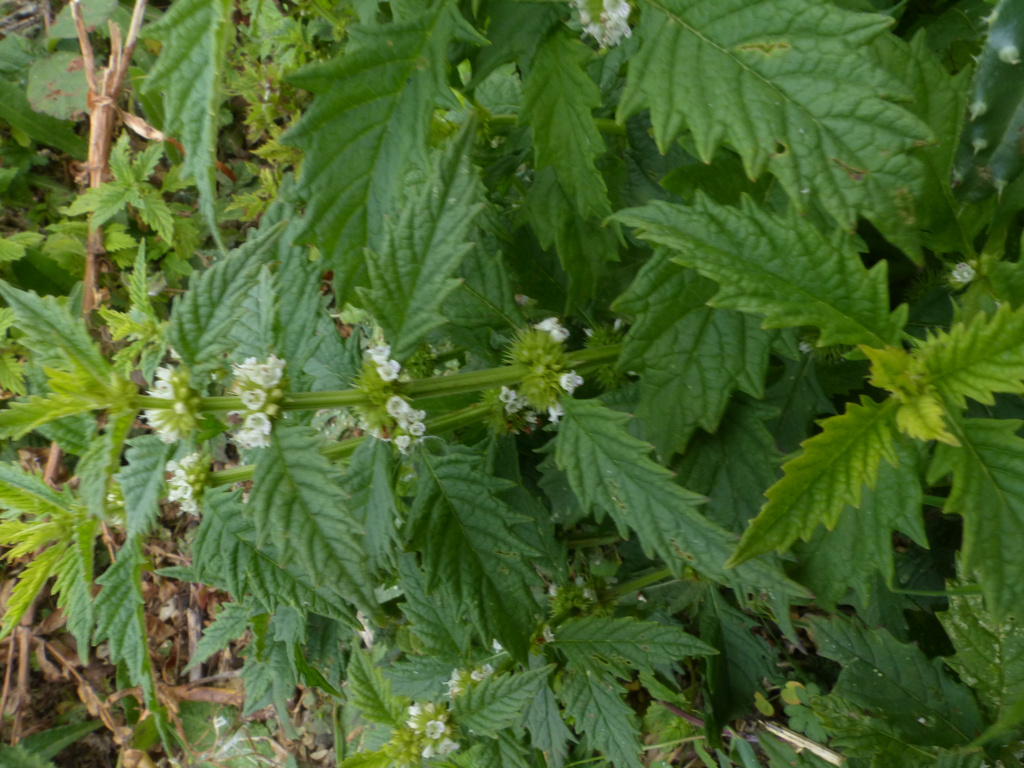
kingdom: Plantae
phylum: Tracheophyta
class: Magnoliopsida
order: Lamiales
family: Lamiaceae
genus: Lycopus
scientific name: Lycopus europaeus
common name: European bugleweed
